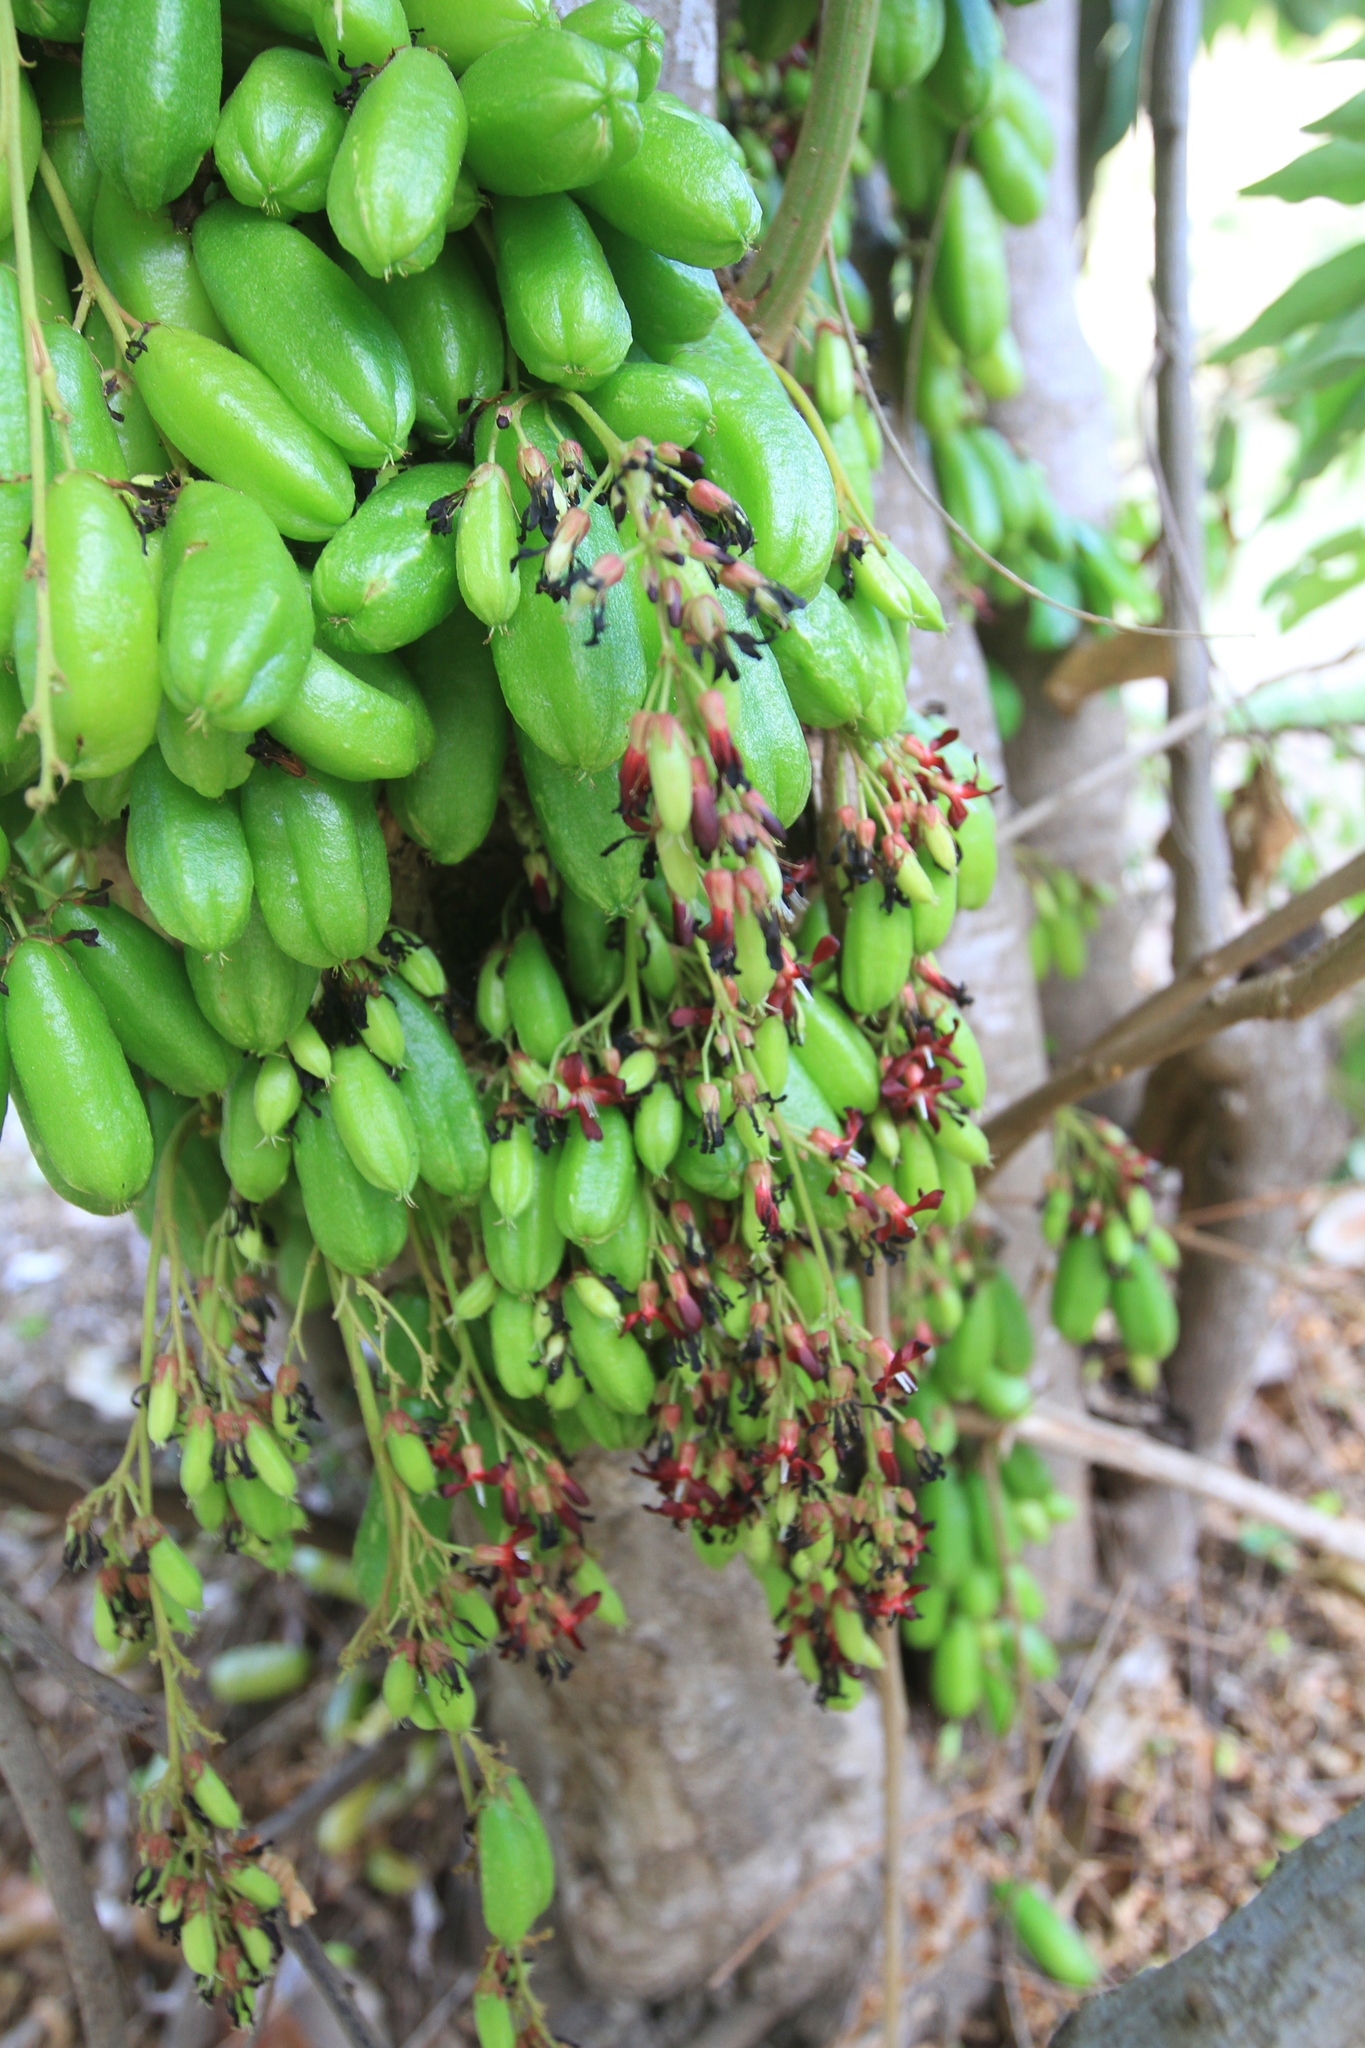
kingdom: Plantae
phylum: Tracheophyta
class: Magnoliopsida
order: Oxalidales
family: Oxalidaceae
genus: Averrhoa
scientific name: Averrhoa bilimbi
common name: Bilimbi
